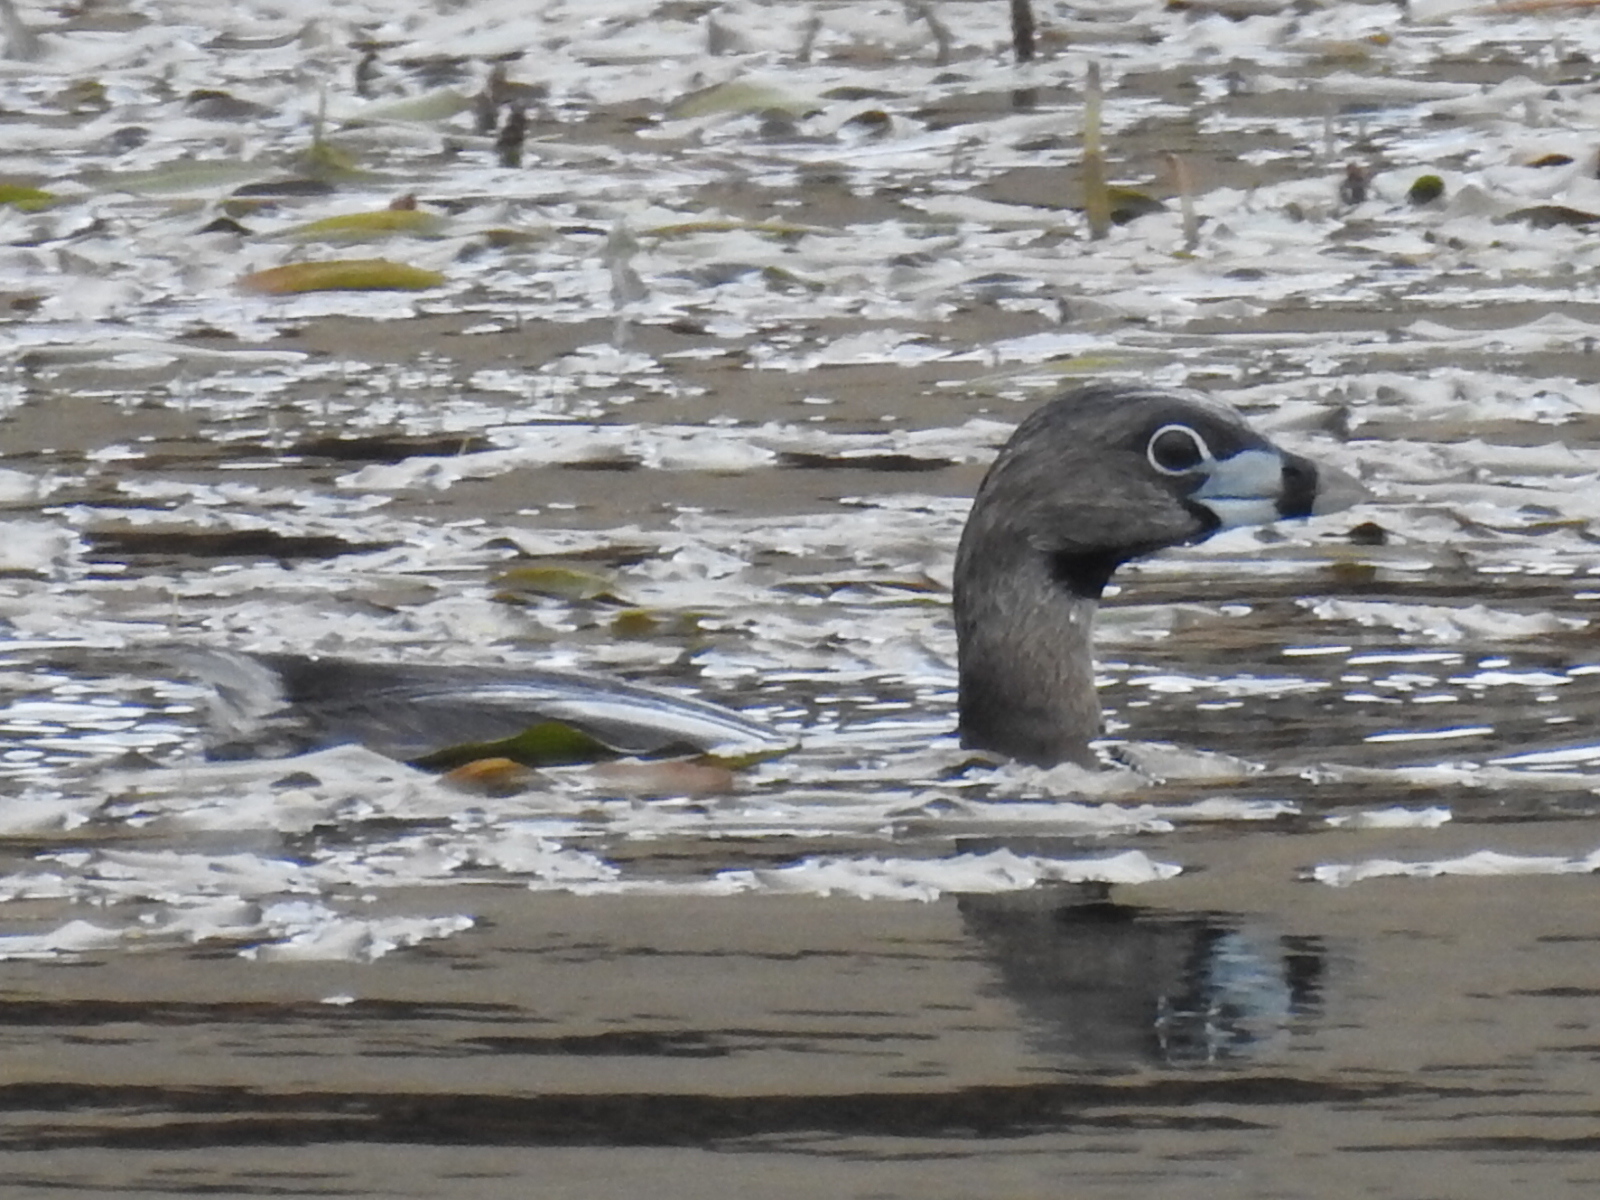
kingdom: Animalia
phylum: Chordata
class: Aves
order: Podicipediformes
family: Podicipedidae
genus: Podilymbus
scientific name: Podilymbus podiceps
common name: Pied-billed grebe
